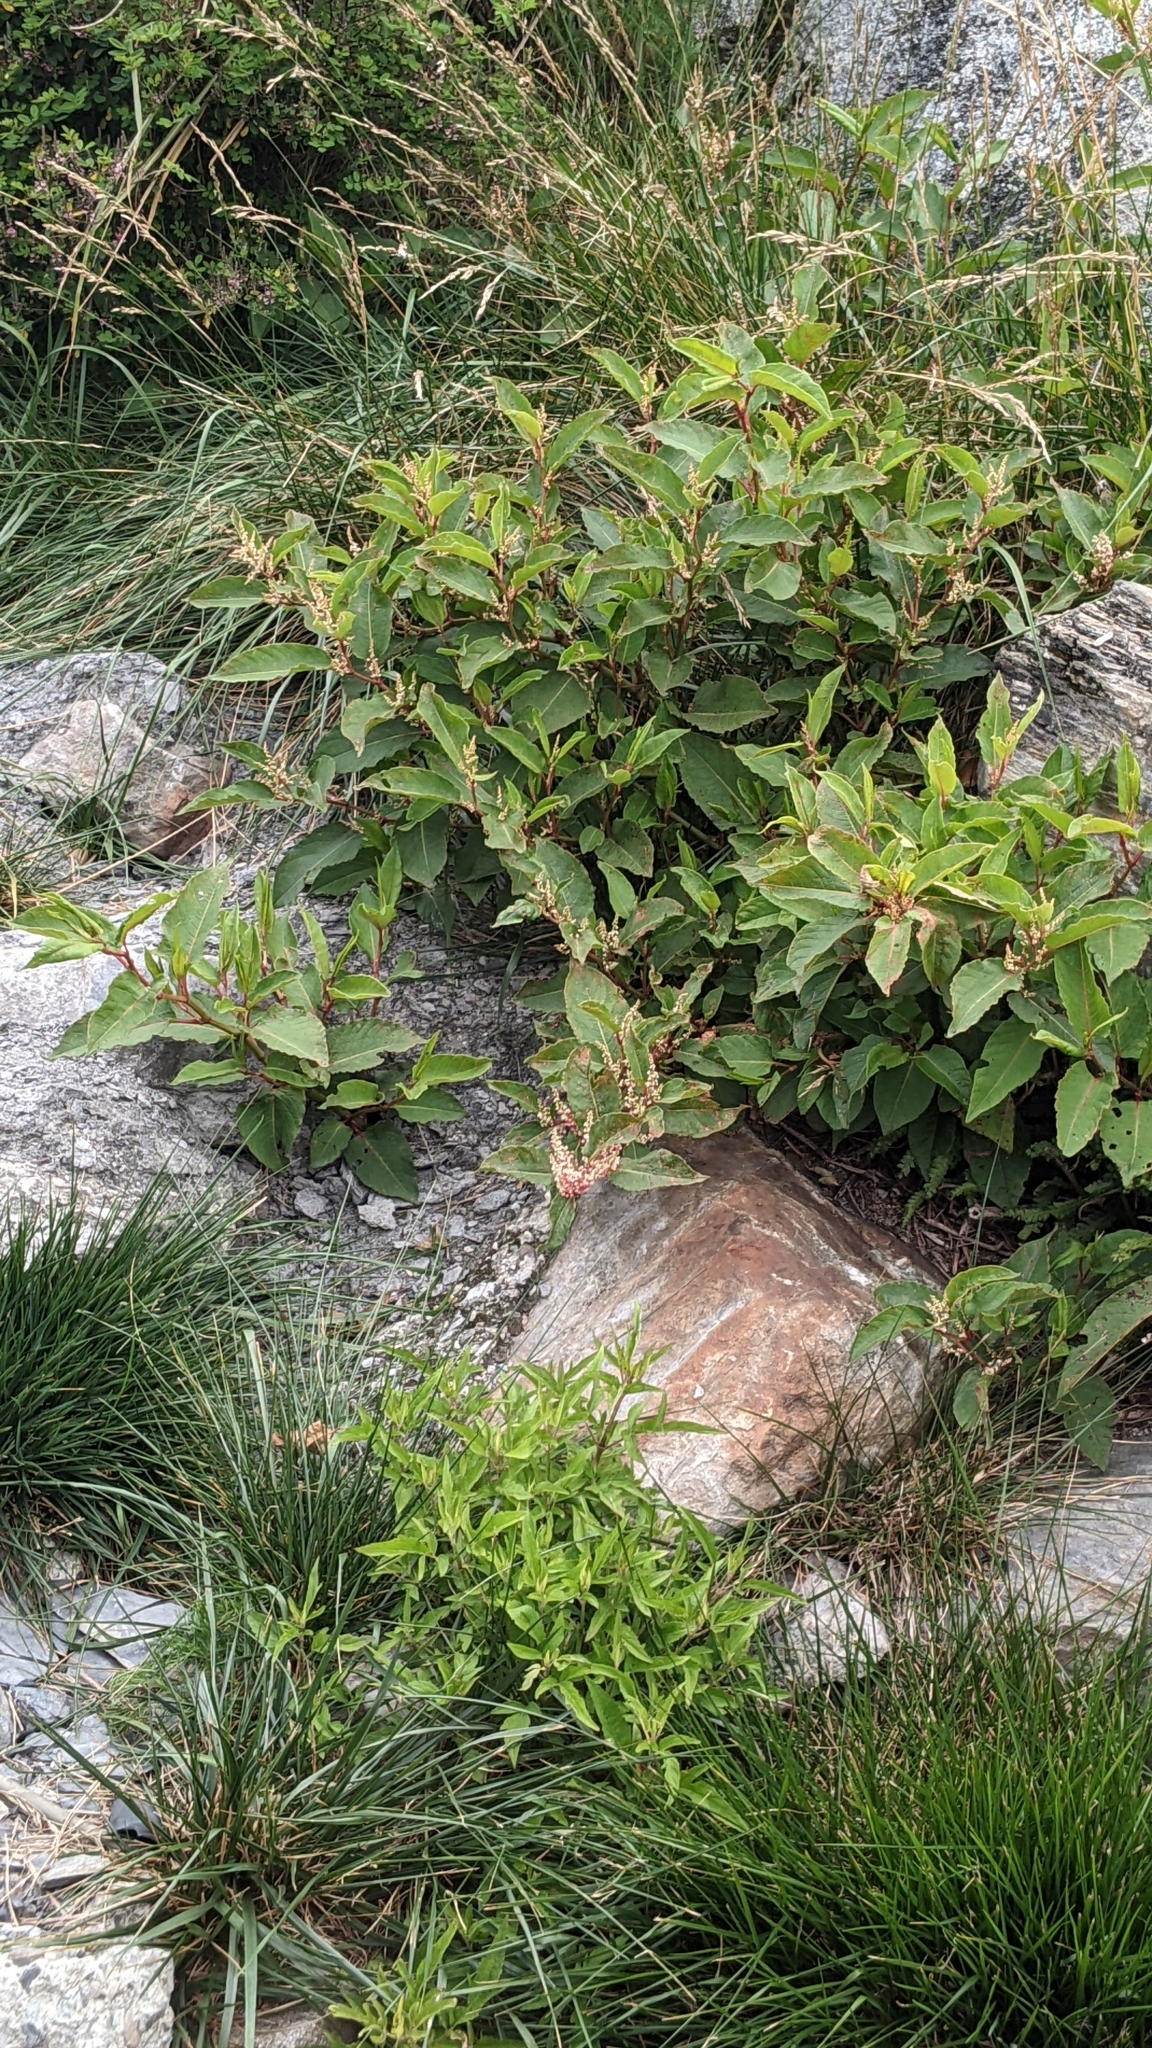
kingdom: Plantae
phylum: Tracheophyta
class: Magnoliopsida
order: Caryophyllales
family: Polygonaceae
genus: Reynoutria
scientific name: Reynoutria japonica
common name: Japanese knotweed
